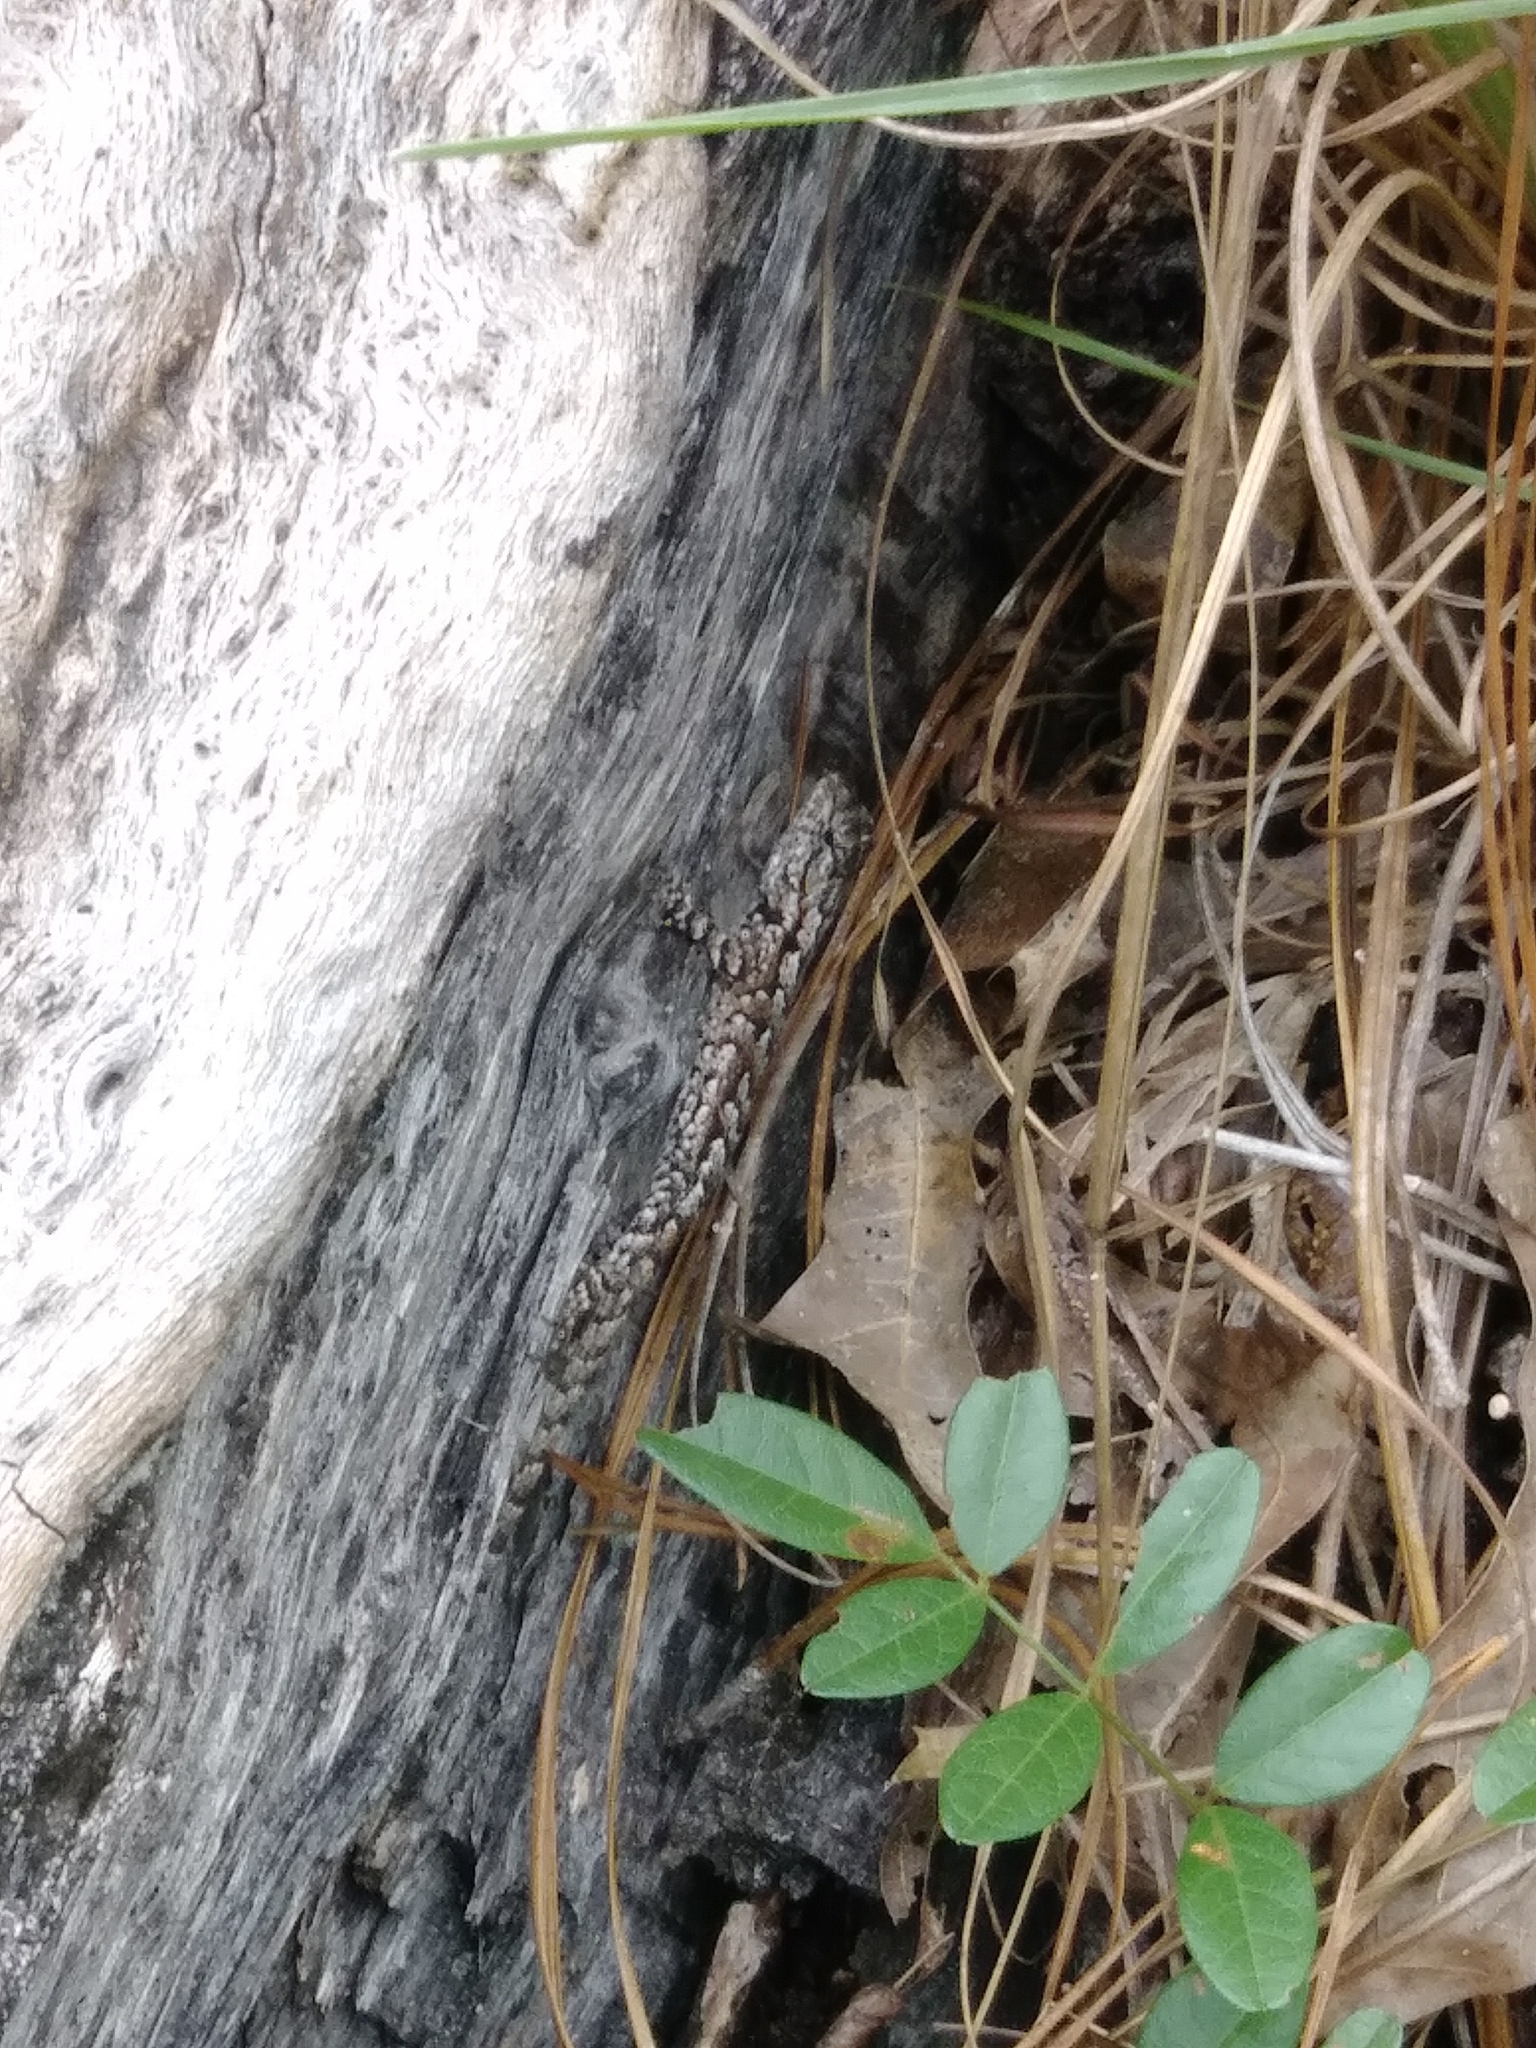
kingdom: Animalia
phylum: Chordata
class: Squamata
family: Phrynosomatidae
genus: Sceloporus
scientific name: Sceloporus undulatus
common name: Eastern fence lizard
